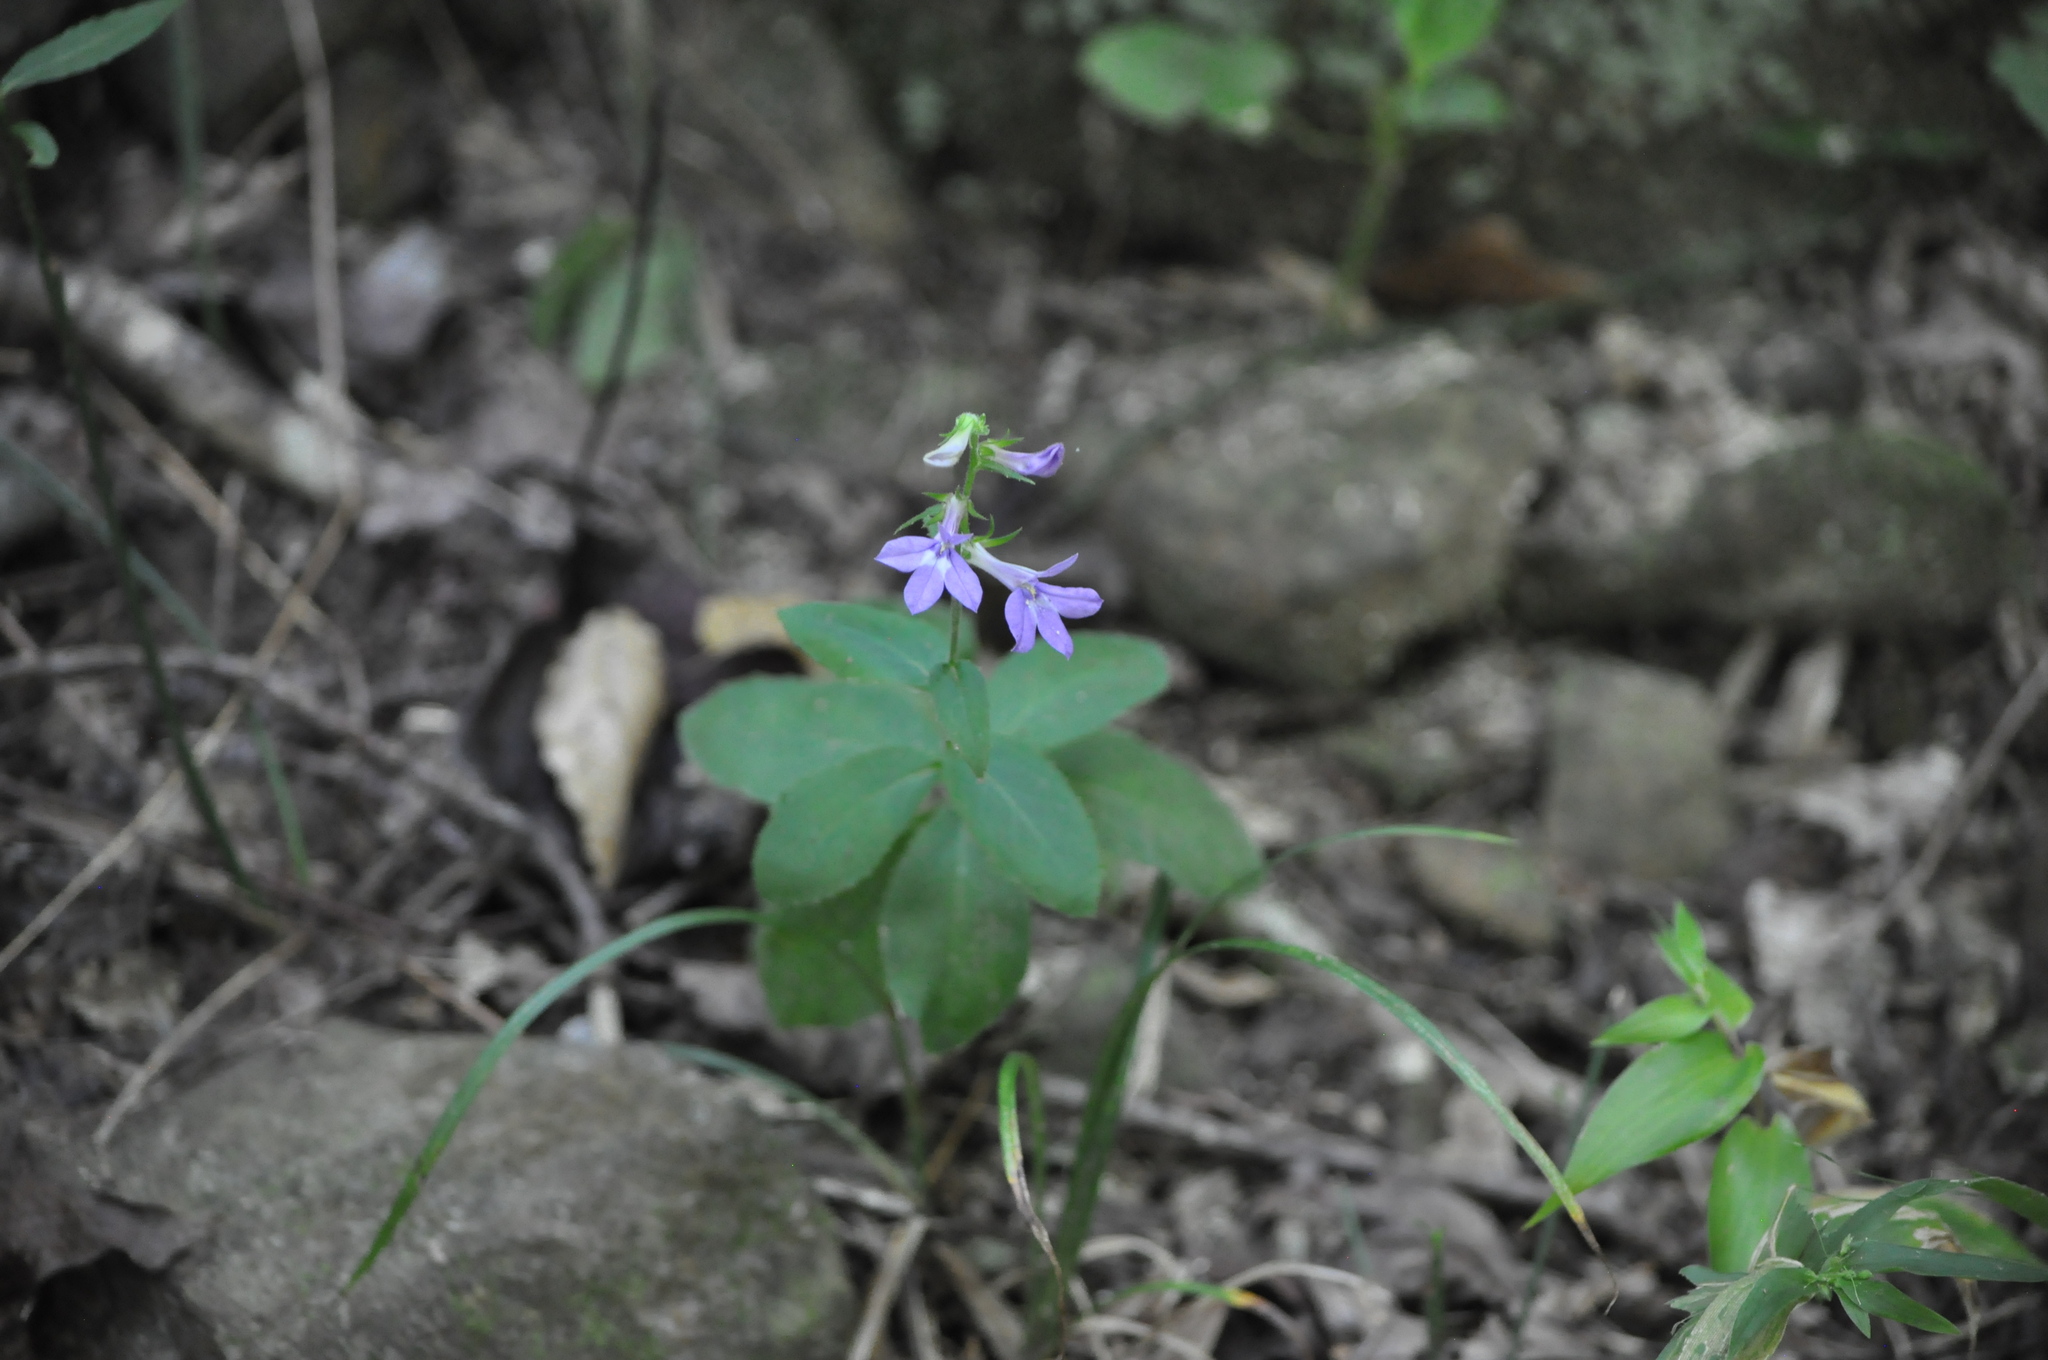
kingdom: Plantae
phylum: Tracheophyta
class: Magnoliopsida
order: Asterales
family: Campanulaceae
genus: Lobelia
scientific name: Lobelia puberula
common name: Purple dewdrop
